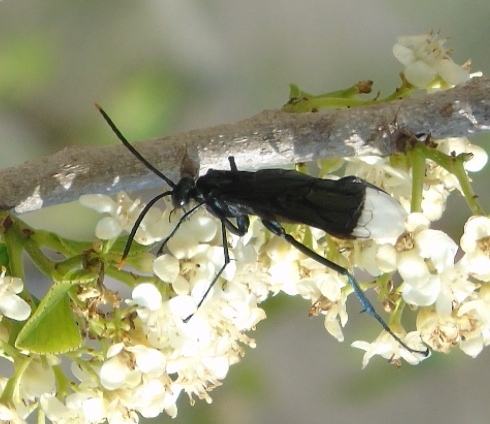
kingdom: Animalia
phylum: Arthropoda
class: Insecta
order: Hymenoptera
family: Pompilidae
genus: Pepsis
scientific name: Pepsis
